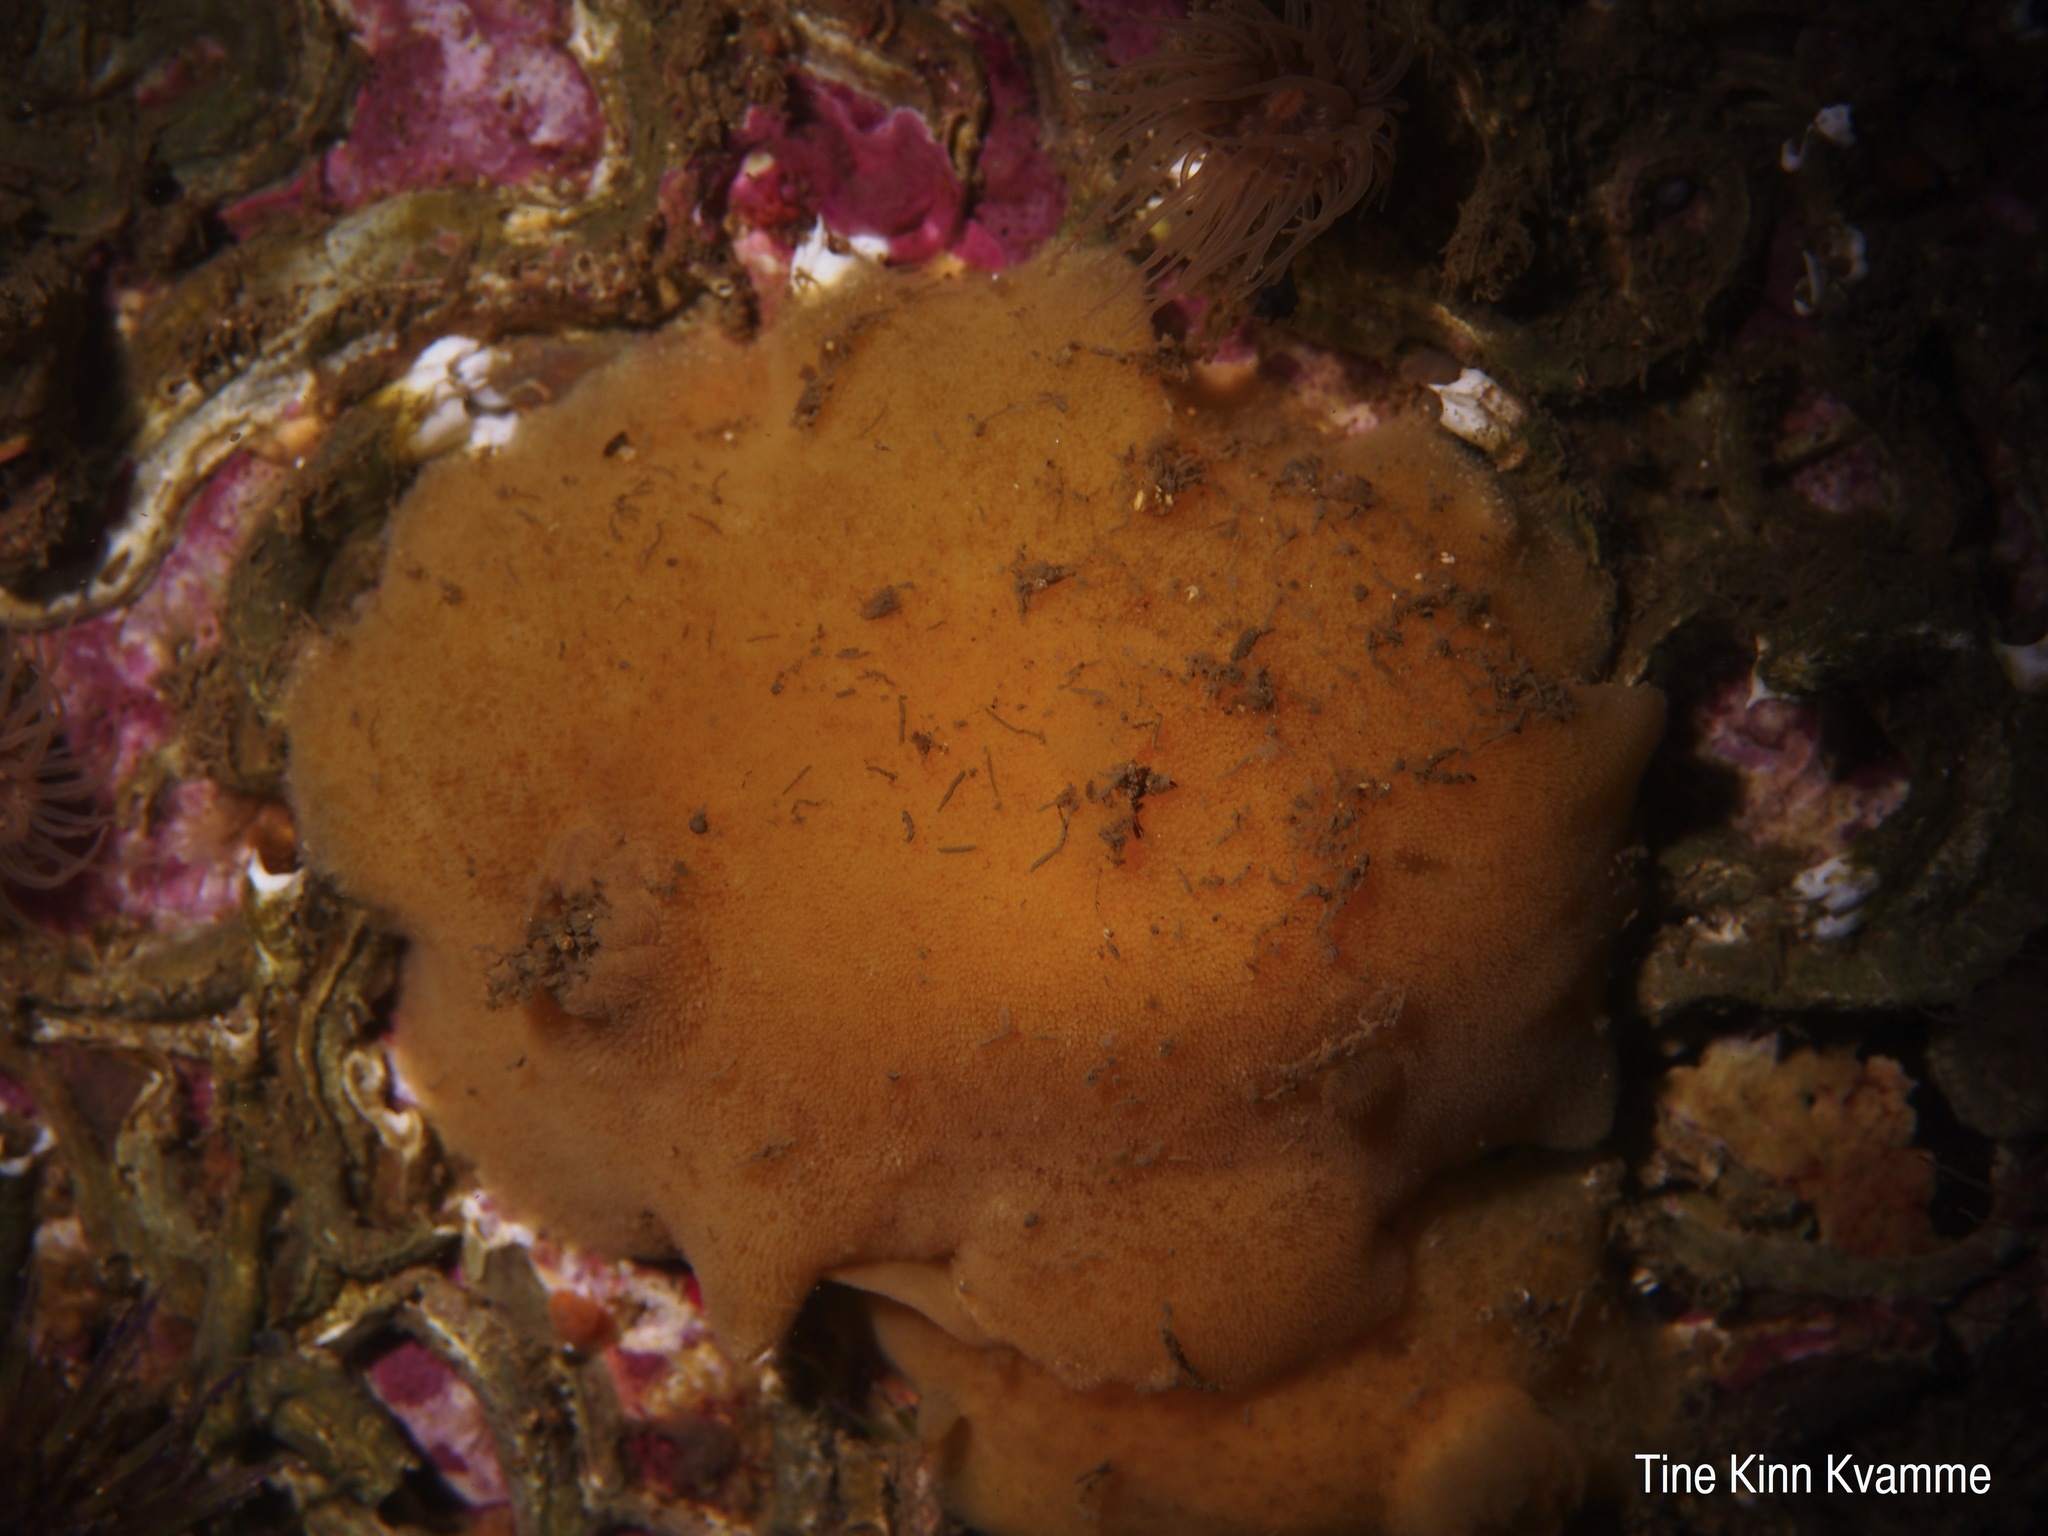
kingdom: Animalia
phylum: Mollusca
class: Gastropoda
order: Nudibranchia
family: Discodorididae
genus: Jorunna
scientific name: Jorunna tomentosa
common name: Grey sea slug
